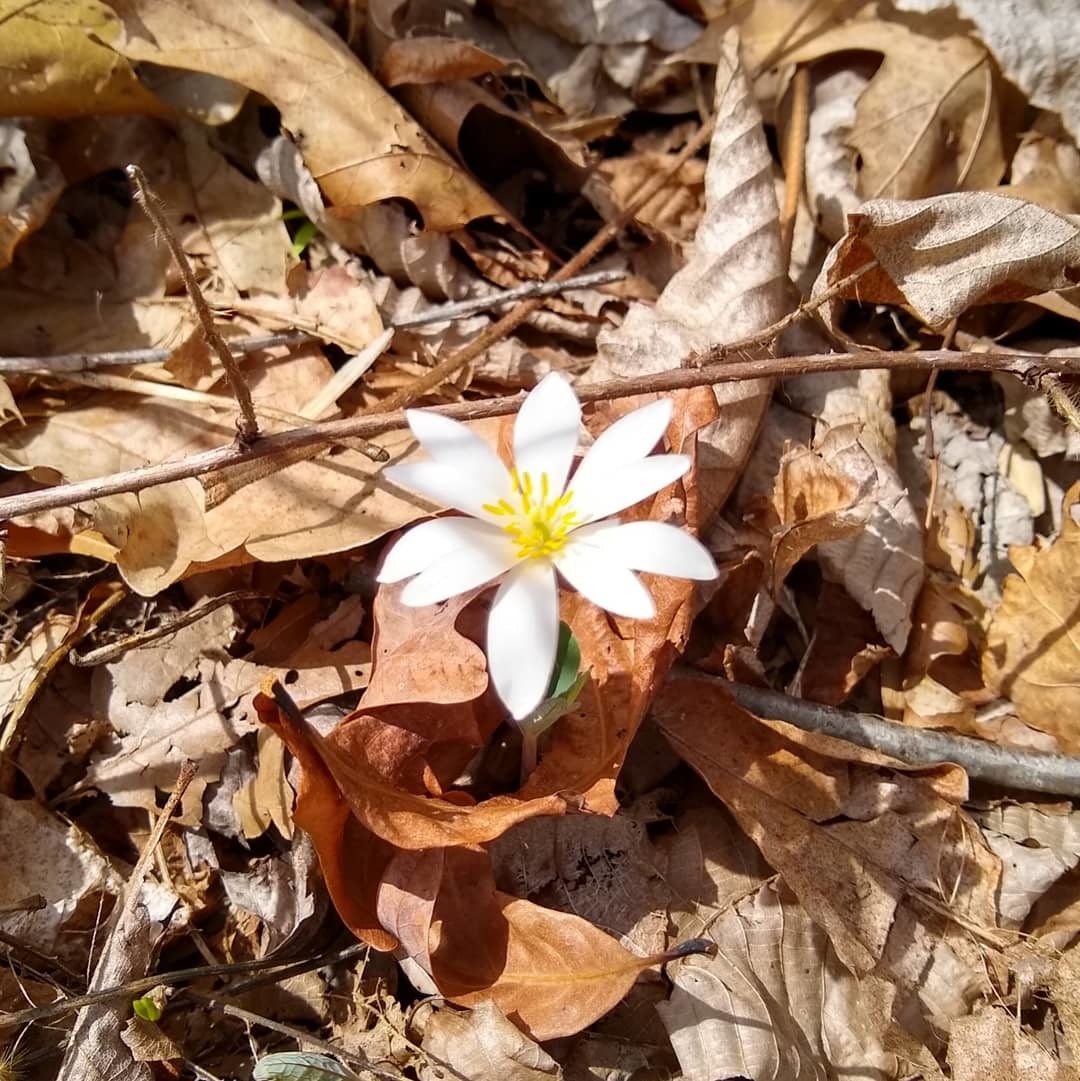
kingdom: Plantae
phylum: Tracheophyta
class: Magnoliopsida
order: Ranunculales
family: Papaveraceae
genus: Sanguinaria
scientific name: Sanguinaria canadensis
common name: Bloodroot
